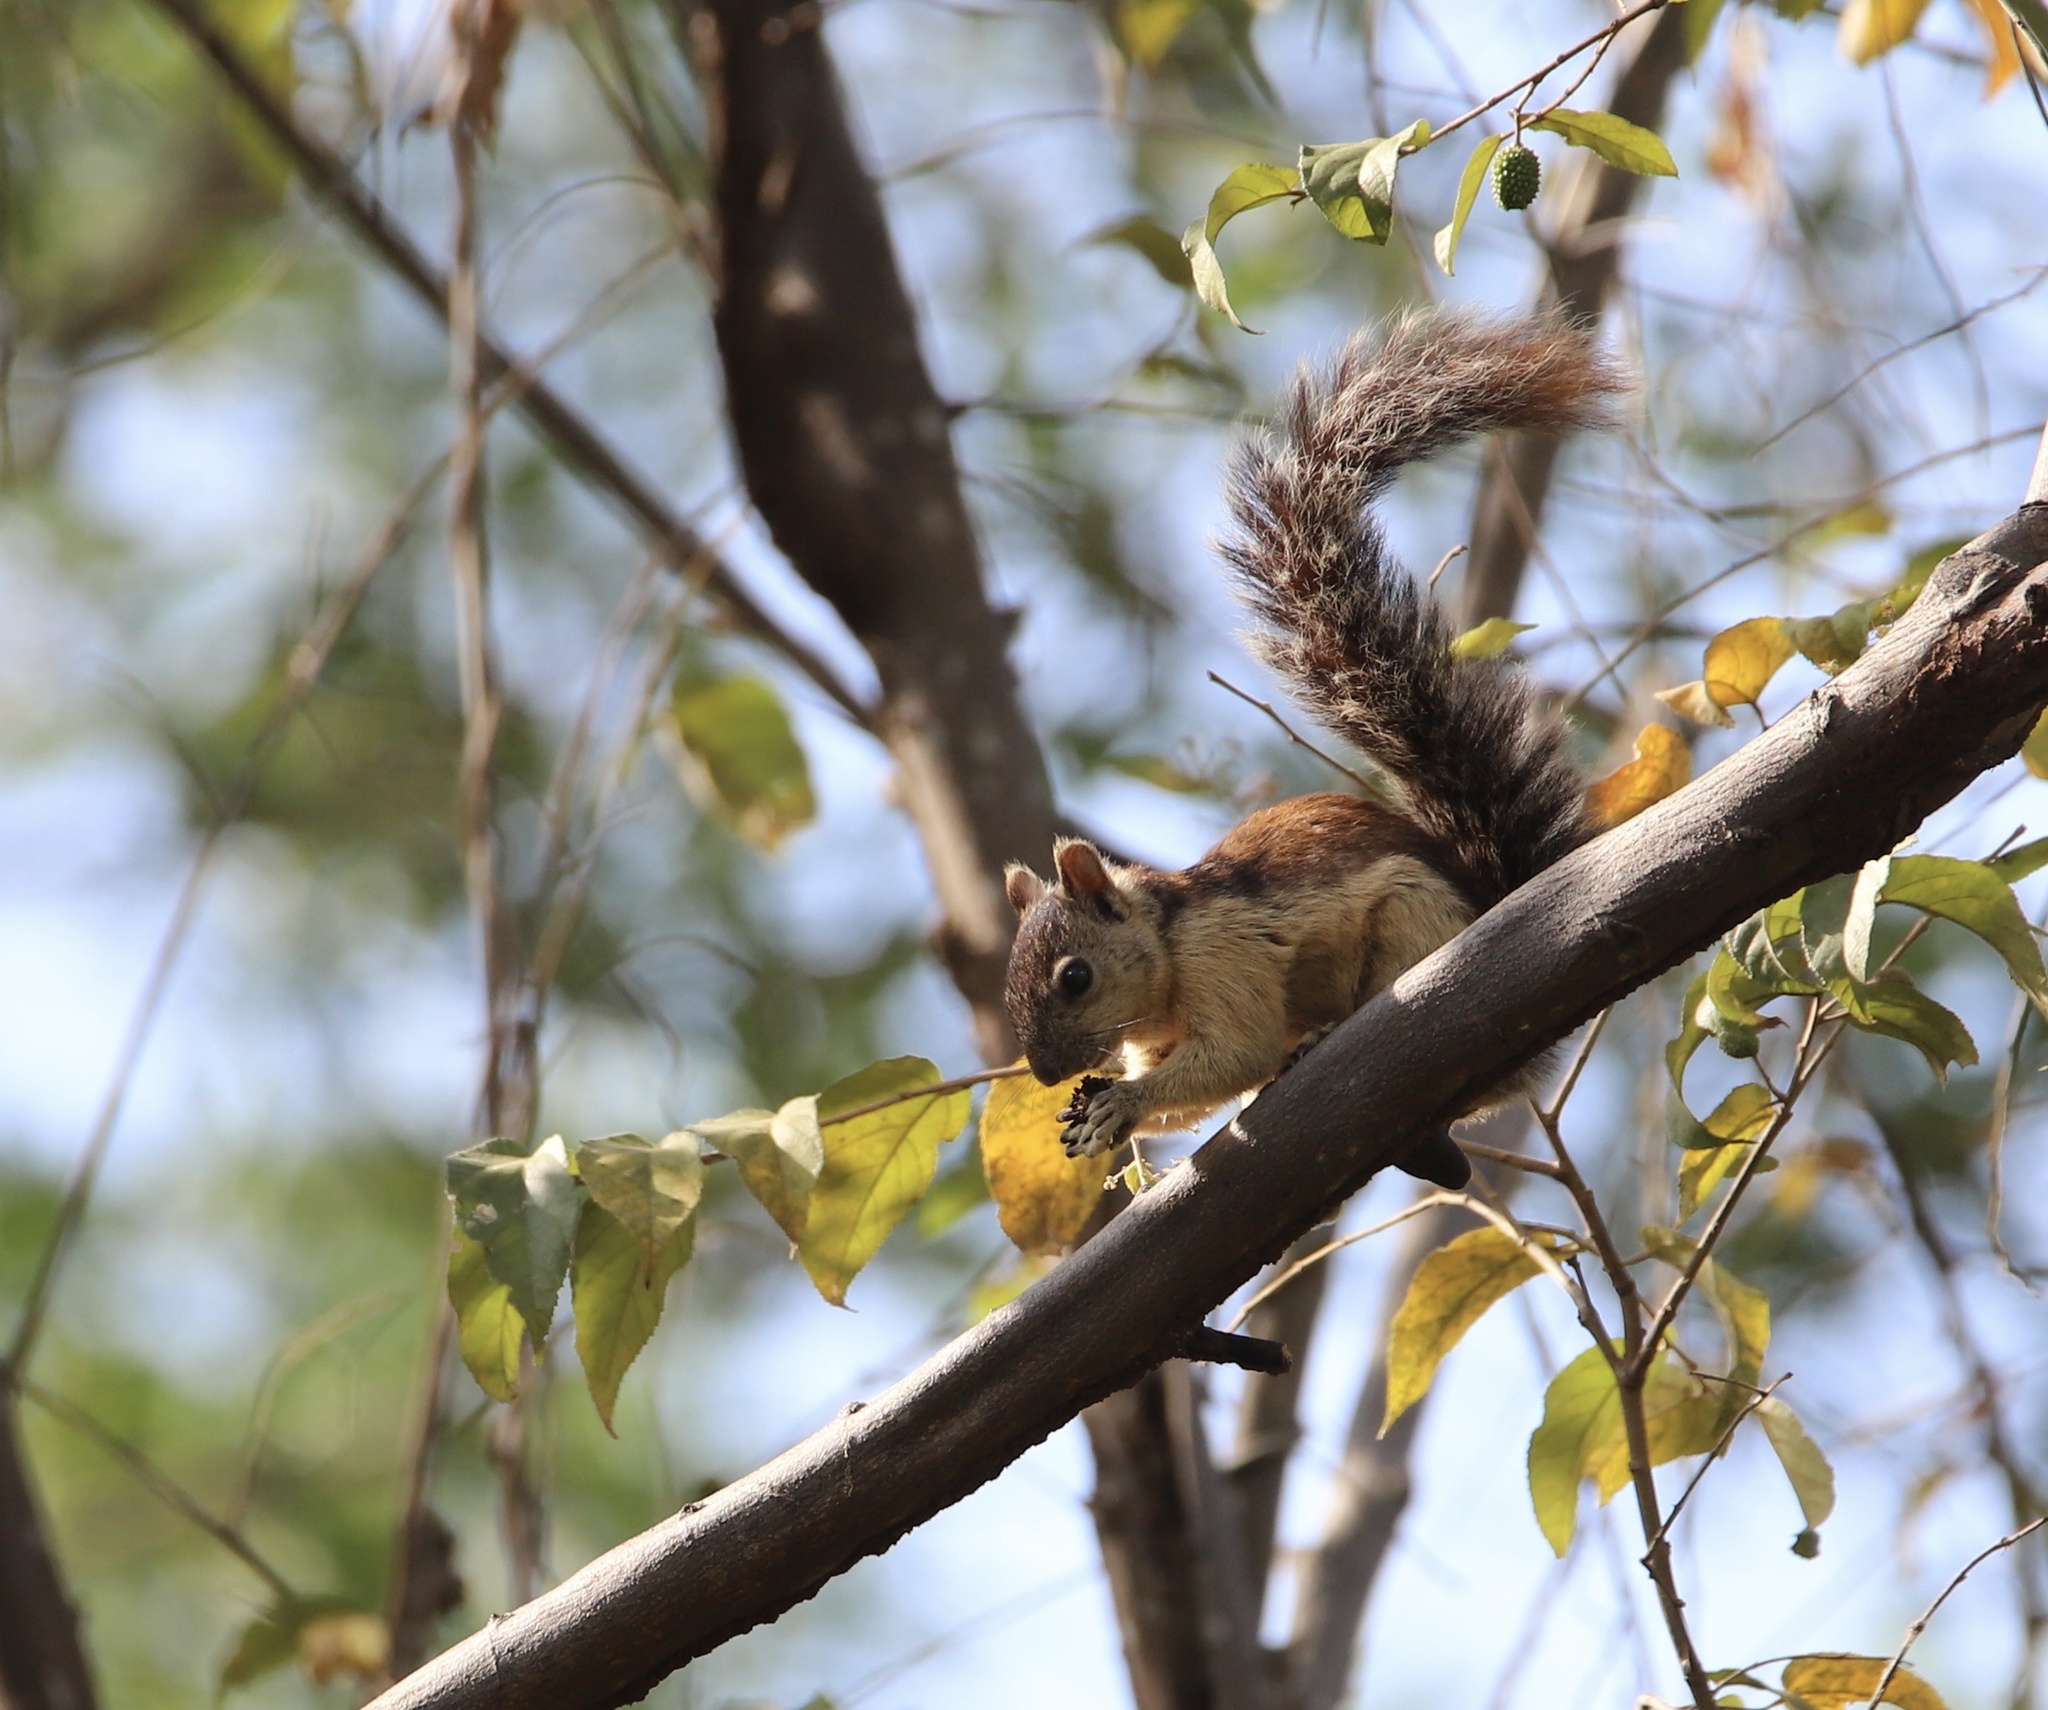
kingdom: Animalia
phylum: Chordata
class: Mammalia
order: Rodentia
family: Sciuridae
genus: Sciurus
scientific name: Sciurus variegatoides
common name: Variegated squirrel
